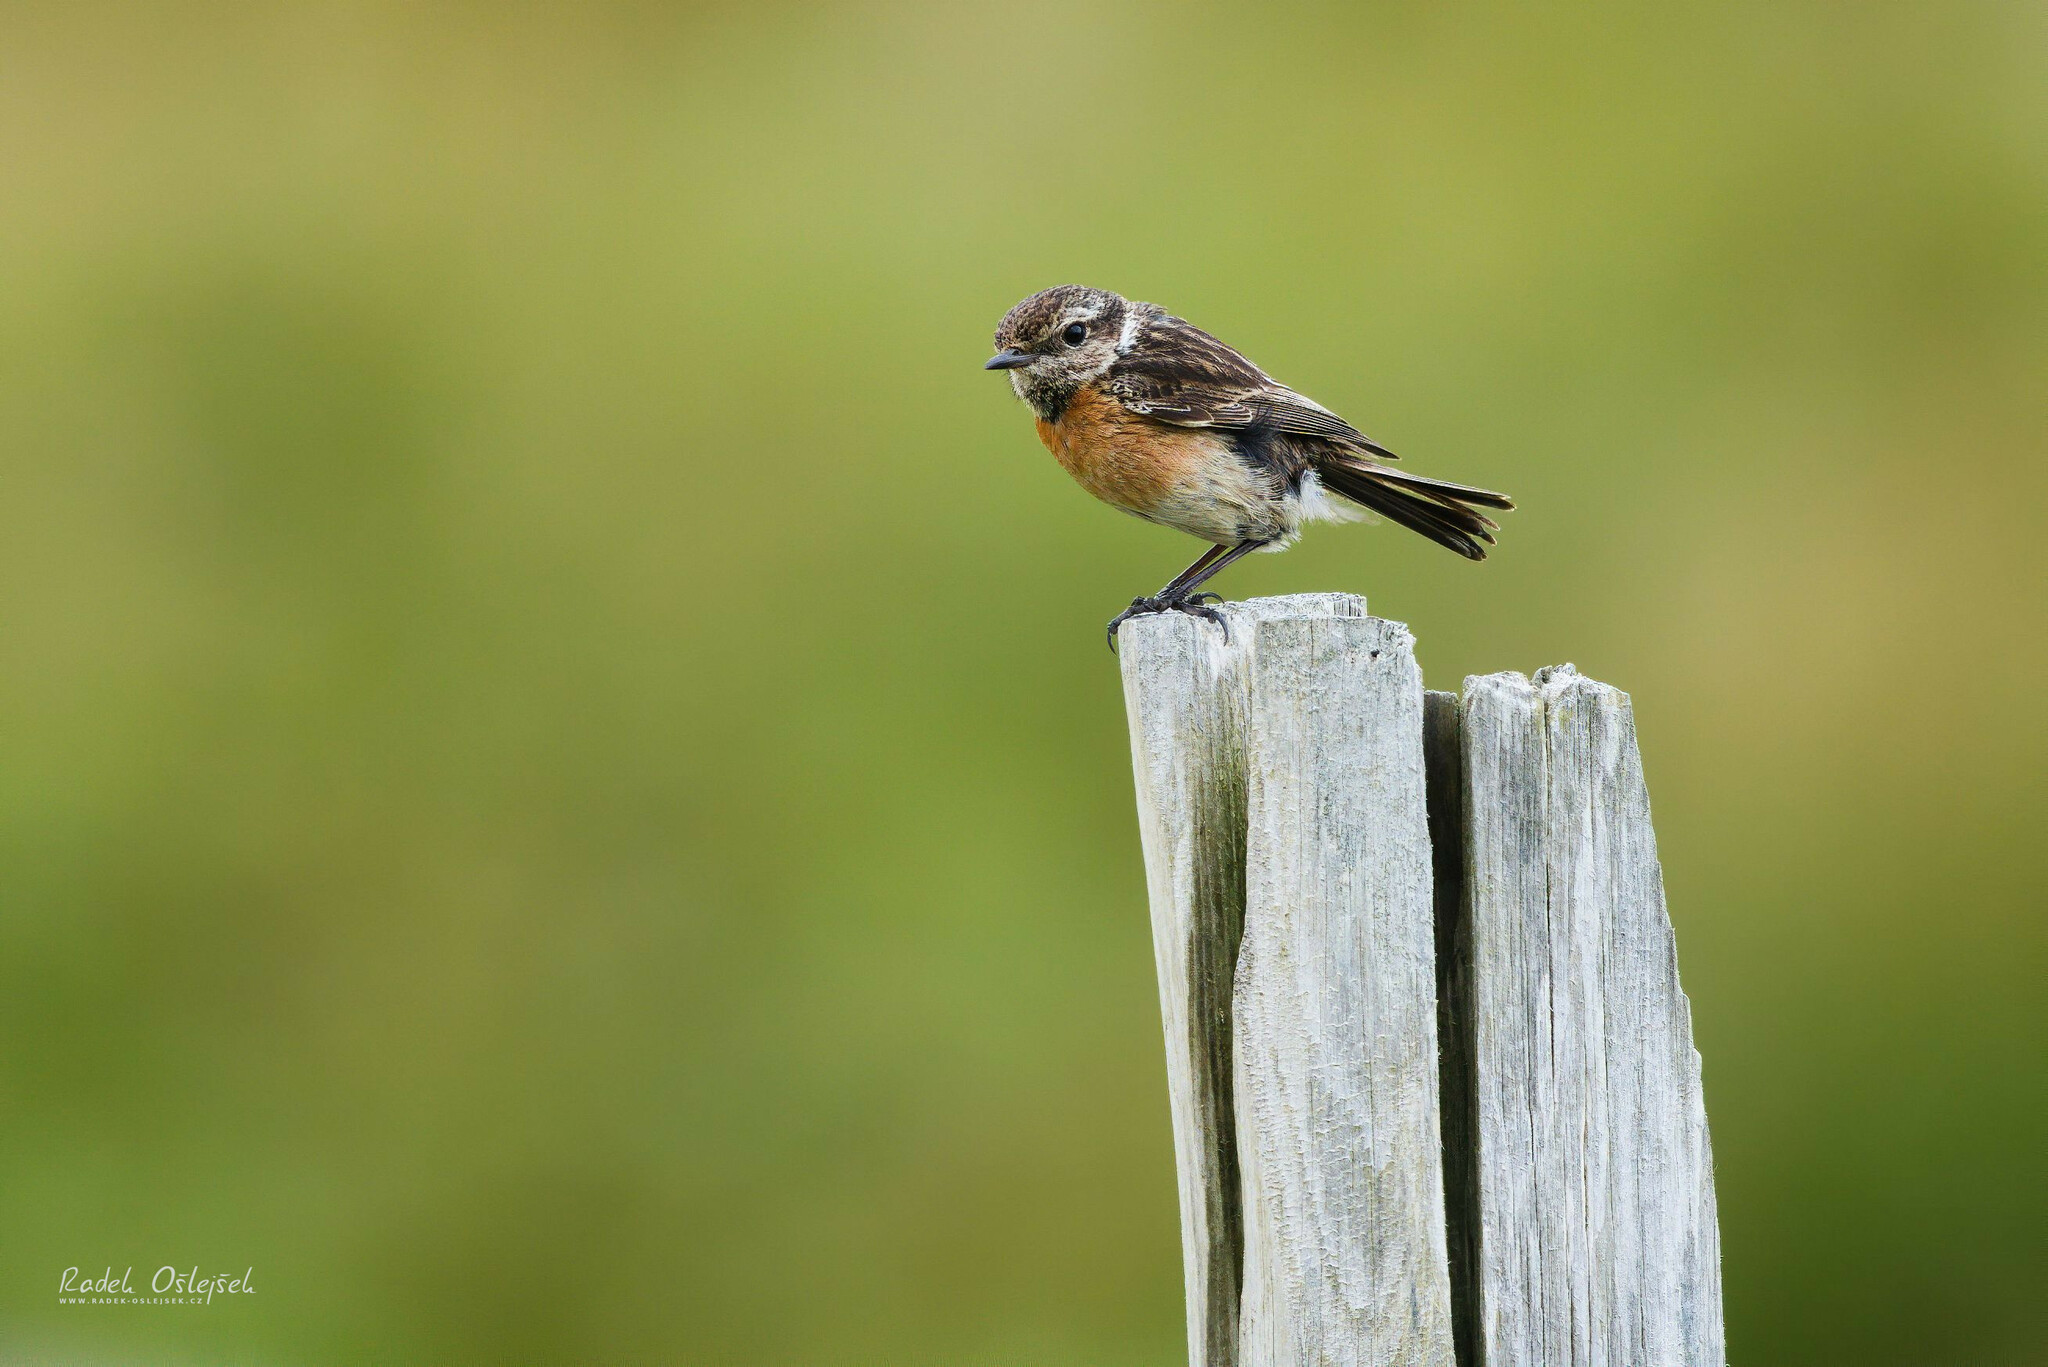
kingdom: Animalia
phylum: Chordata
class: Aves
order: Passeriformes
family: Muscicapidae
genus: Saxicola
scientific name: Saxicola rubicola
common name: European stonechat
